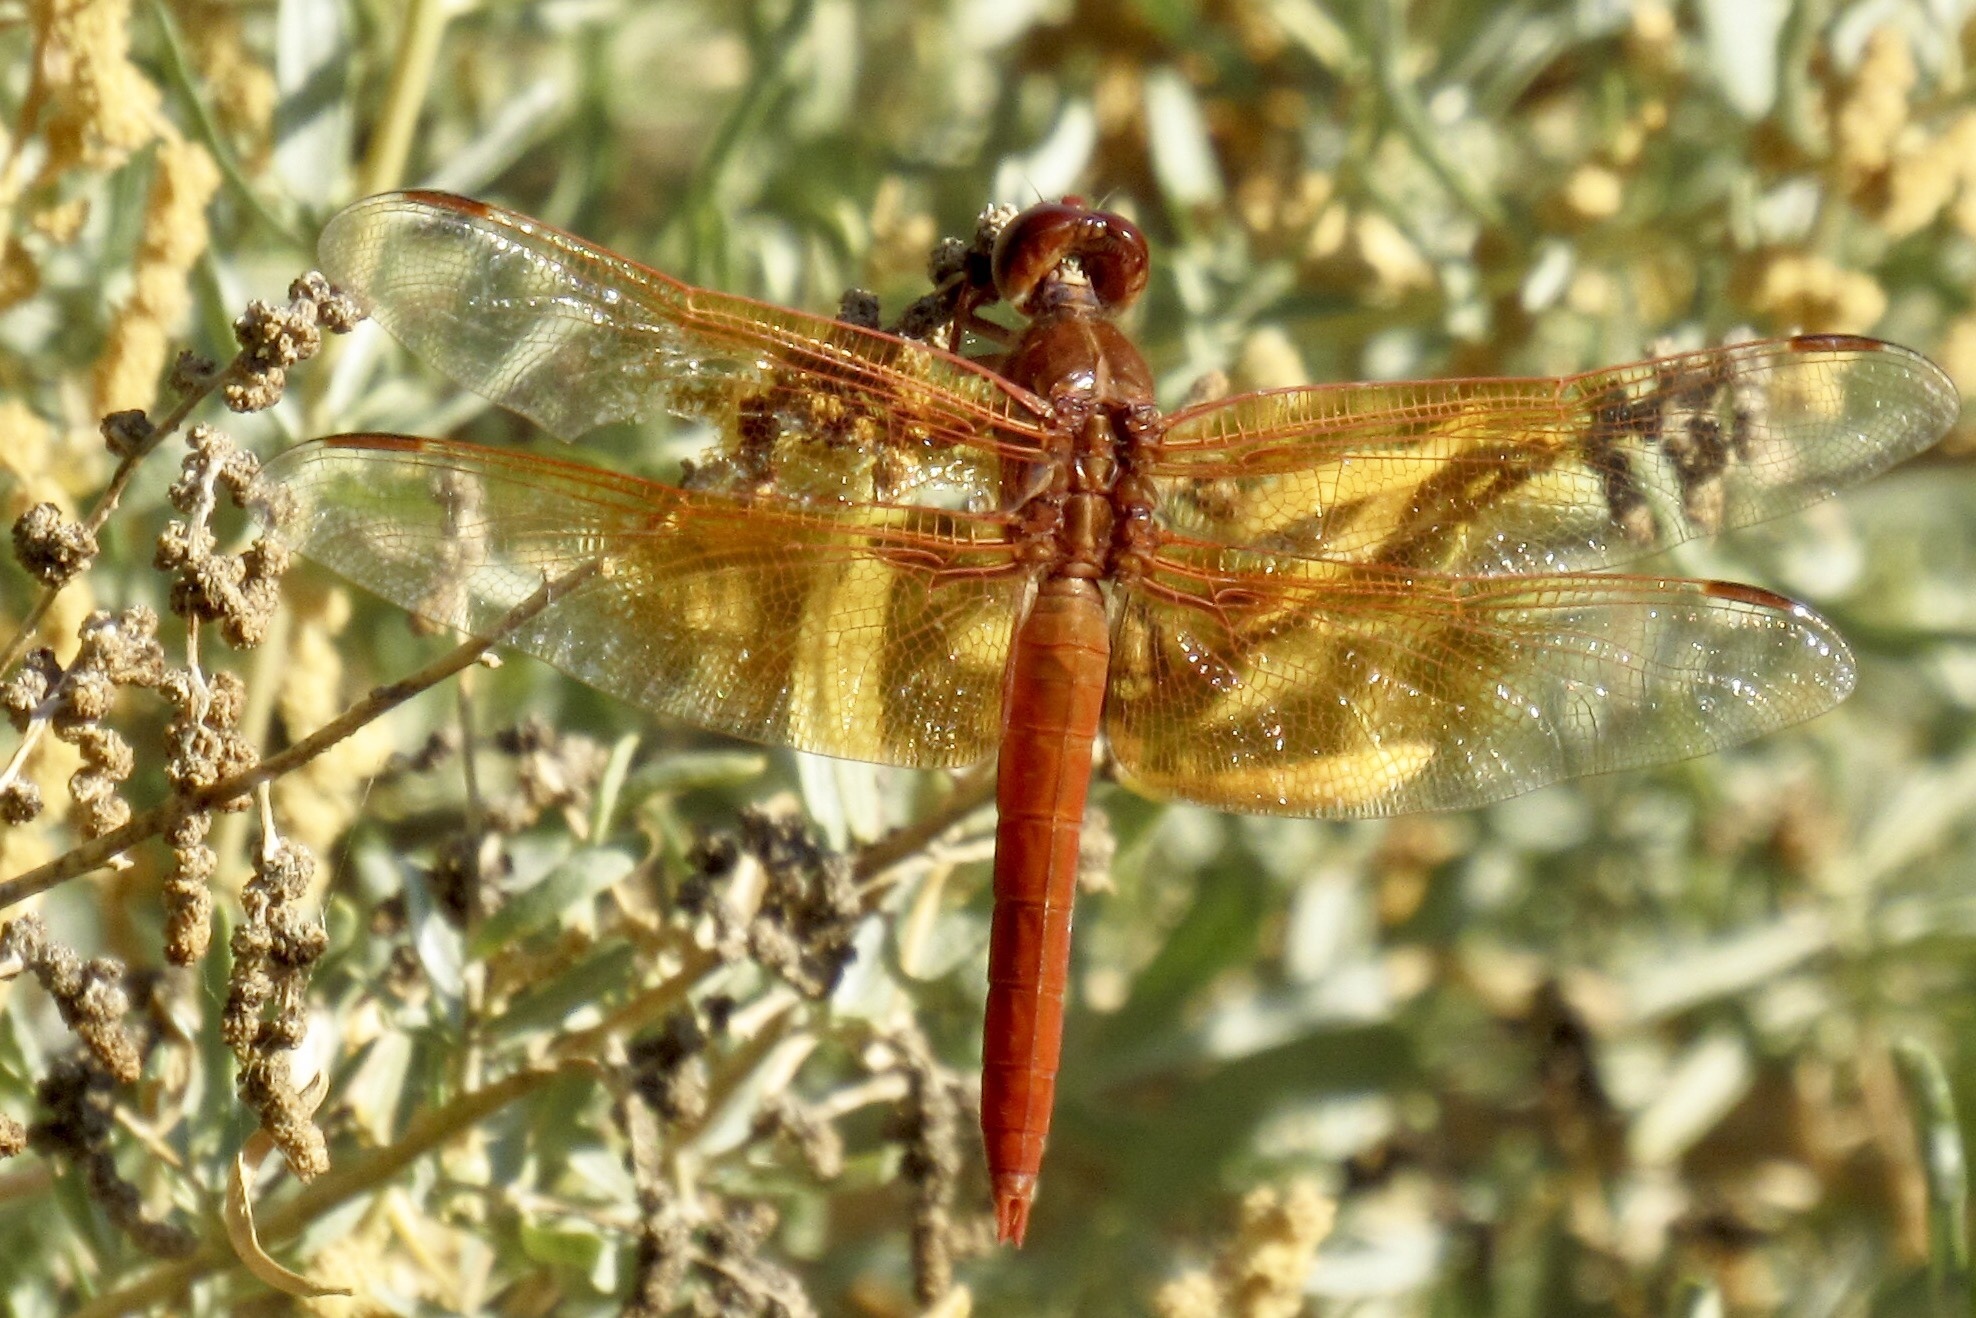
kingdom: Animalia
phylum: Arthropoda
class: Insecta
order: Odonata
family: Libellulidae
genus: Libellula
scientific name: Libellula saturata
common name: Flame skimmer
